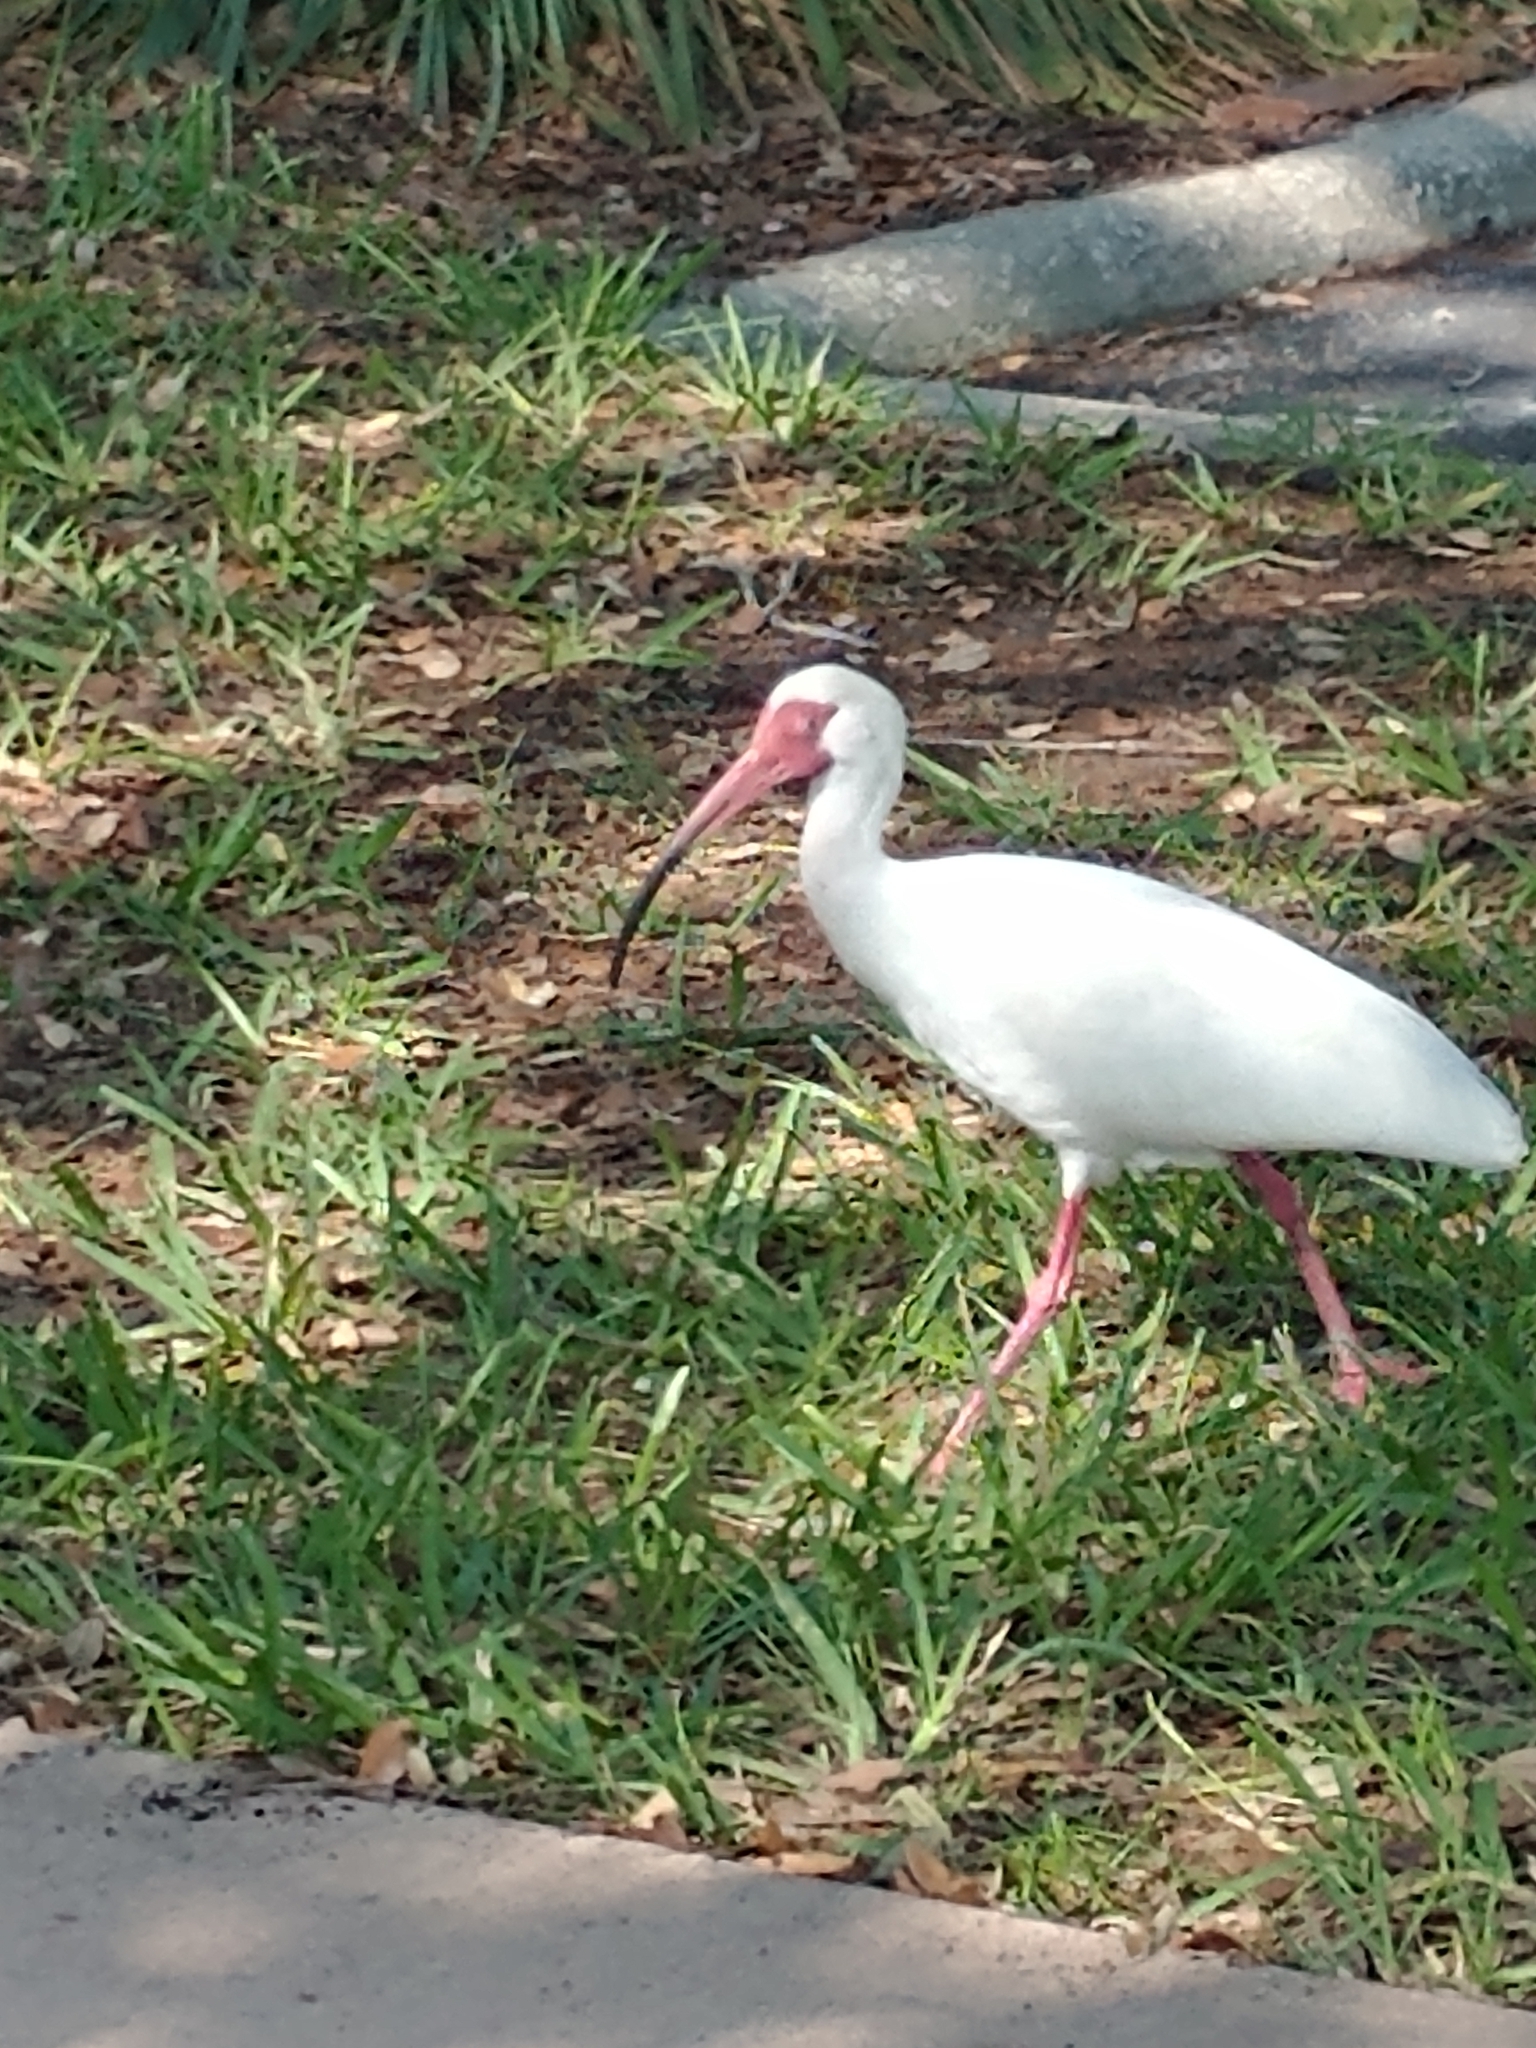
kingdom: Animalia
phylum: Chordata
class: Aves
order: Pelecaniformes
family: Threskiornithidae
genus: Eudocimus
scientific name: Eudocimus albus
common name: White ibis
